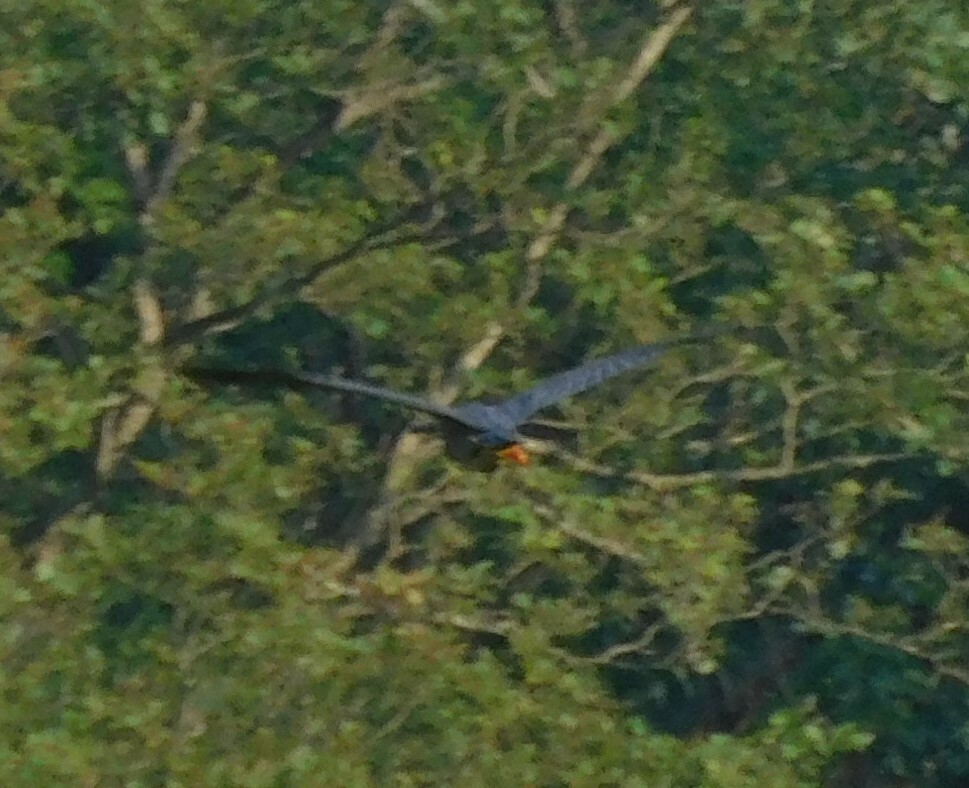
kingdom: Animalia
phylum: Chordata
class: Aves
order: Pelecaniformes
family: Ardeidae
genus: Butorides
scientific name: Butorides virescens
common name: Green heron
